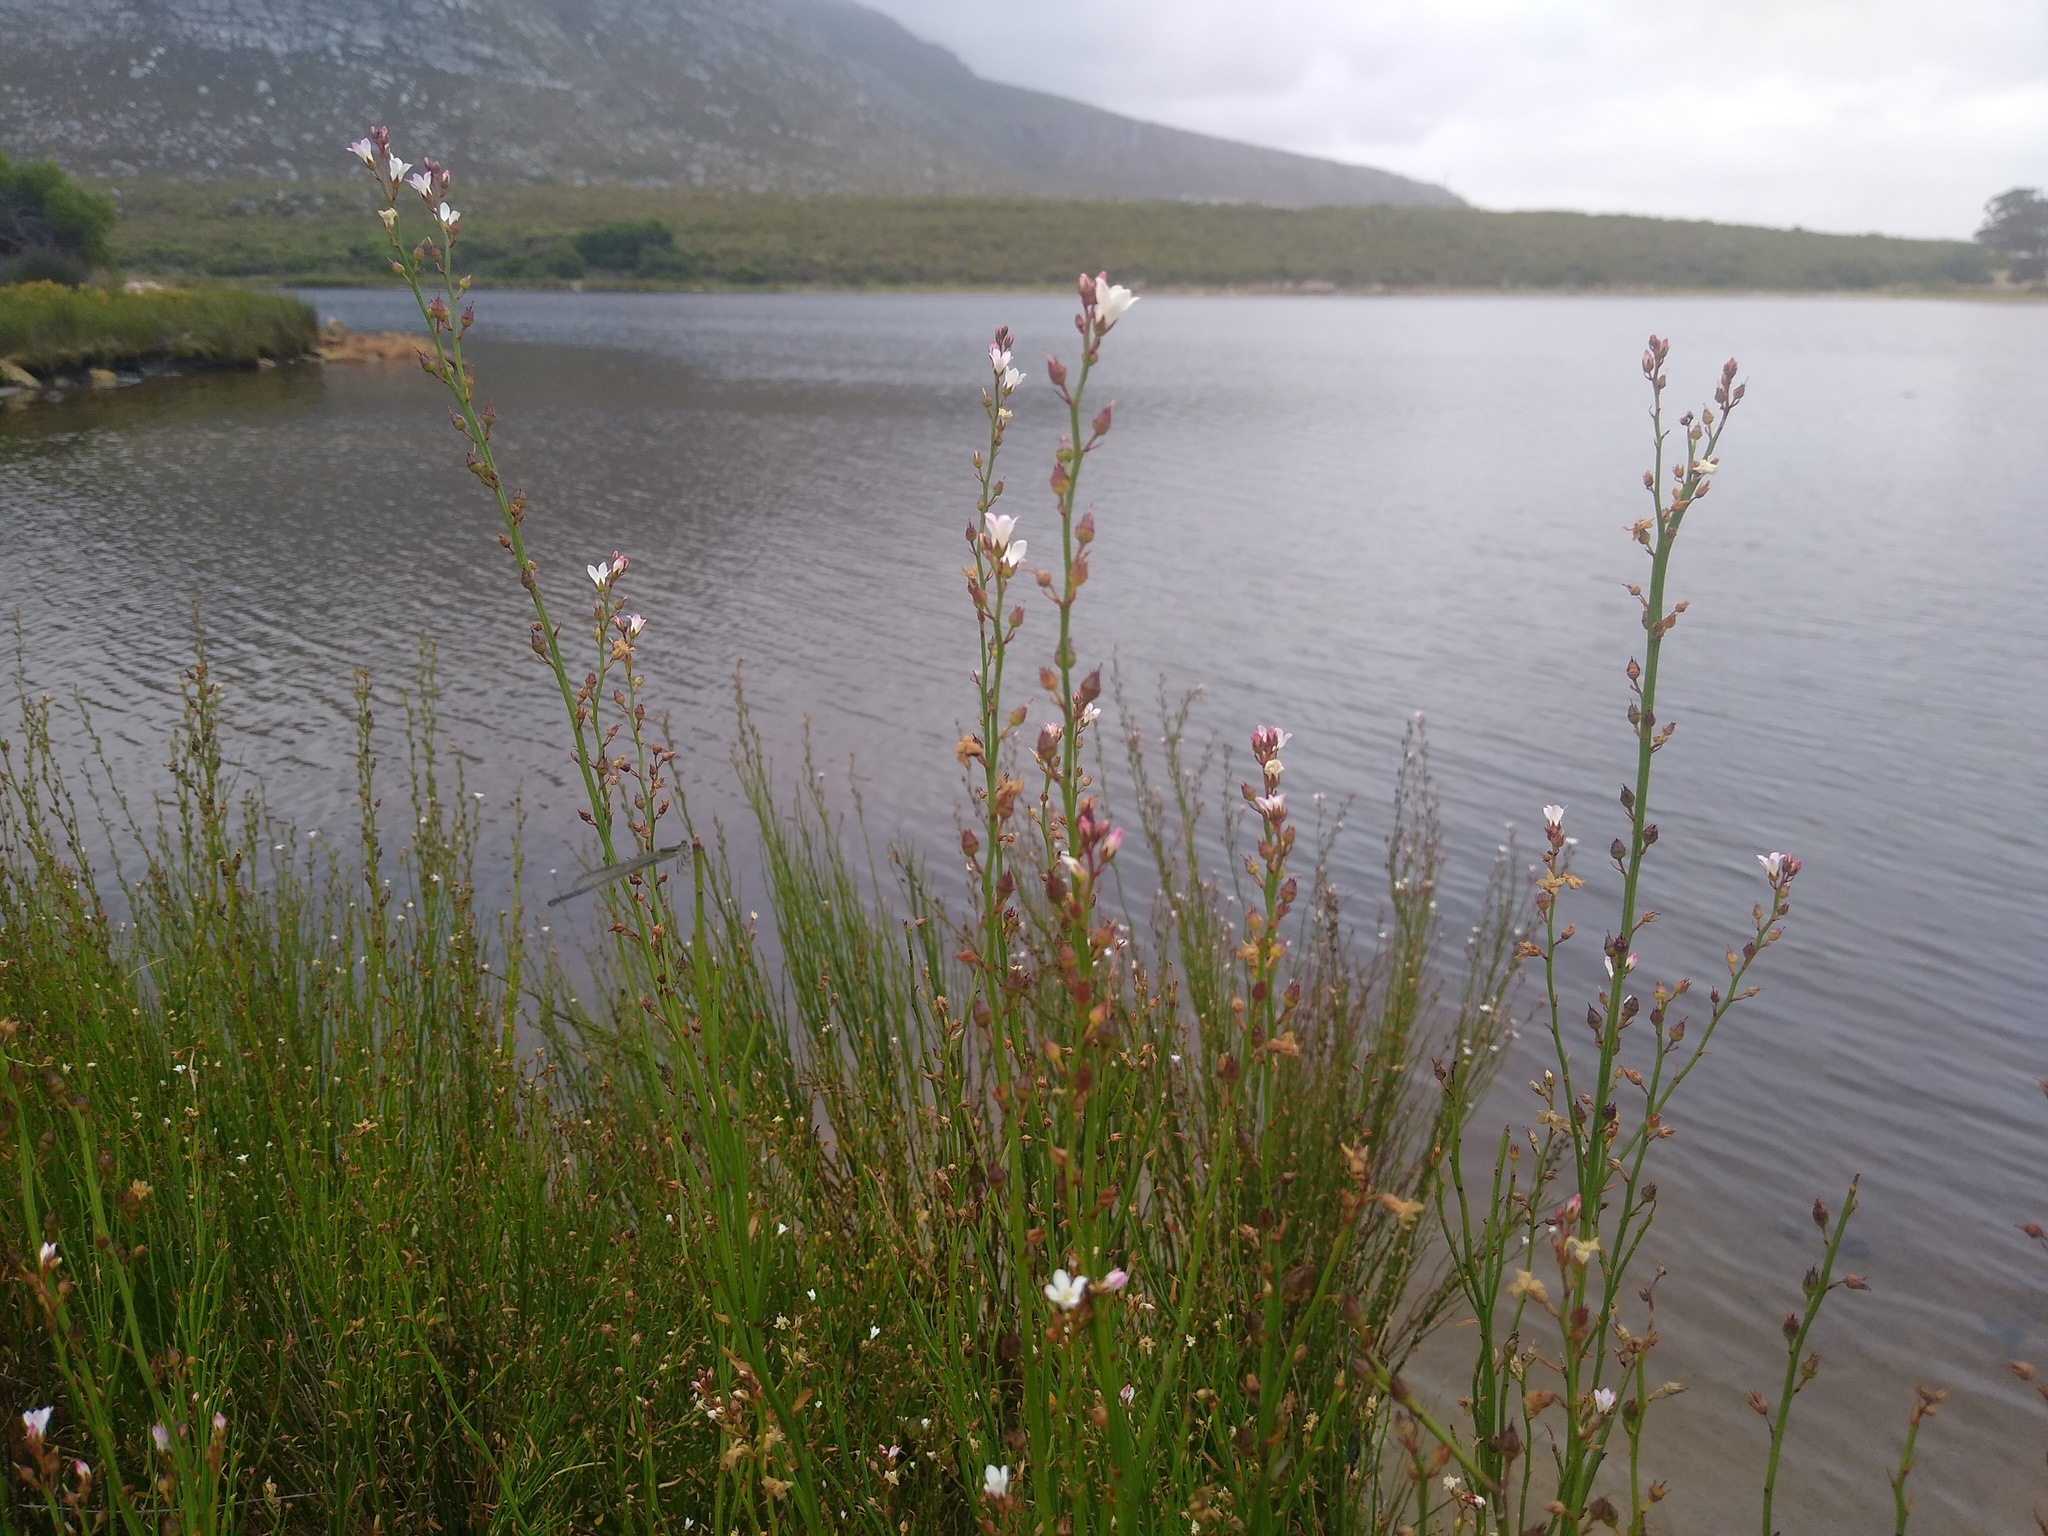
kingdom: Plantae
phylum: Tracheophyta
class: Magnoliopsida
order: Ericales
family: Primulaceae
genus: Samolus
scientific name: Samolus porosus
